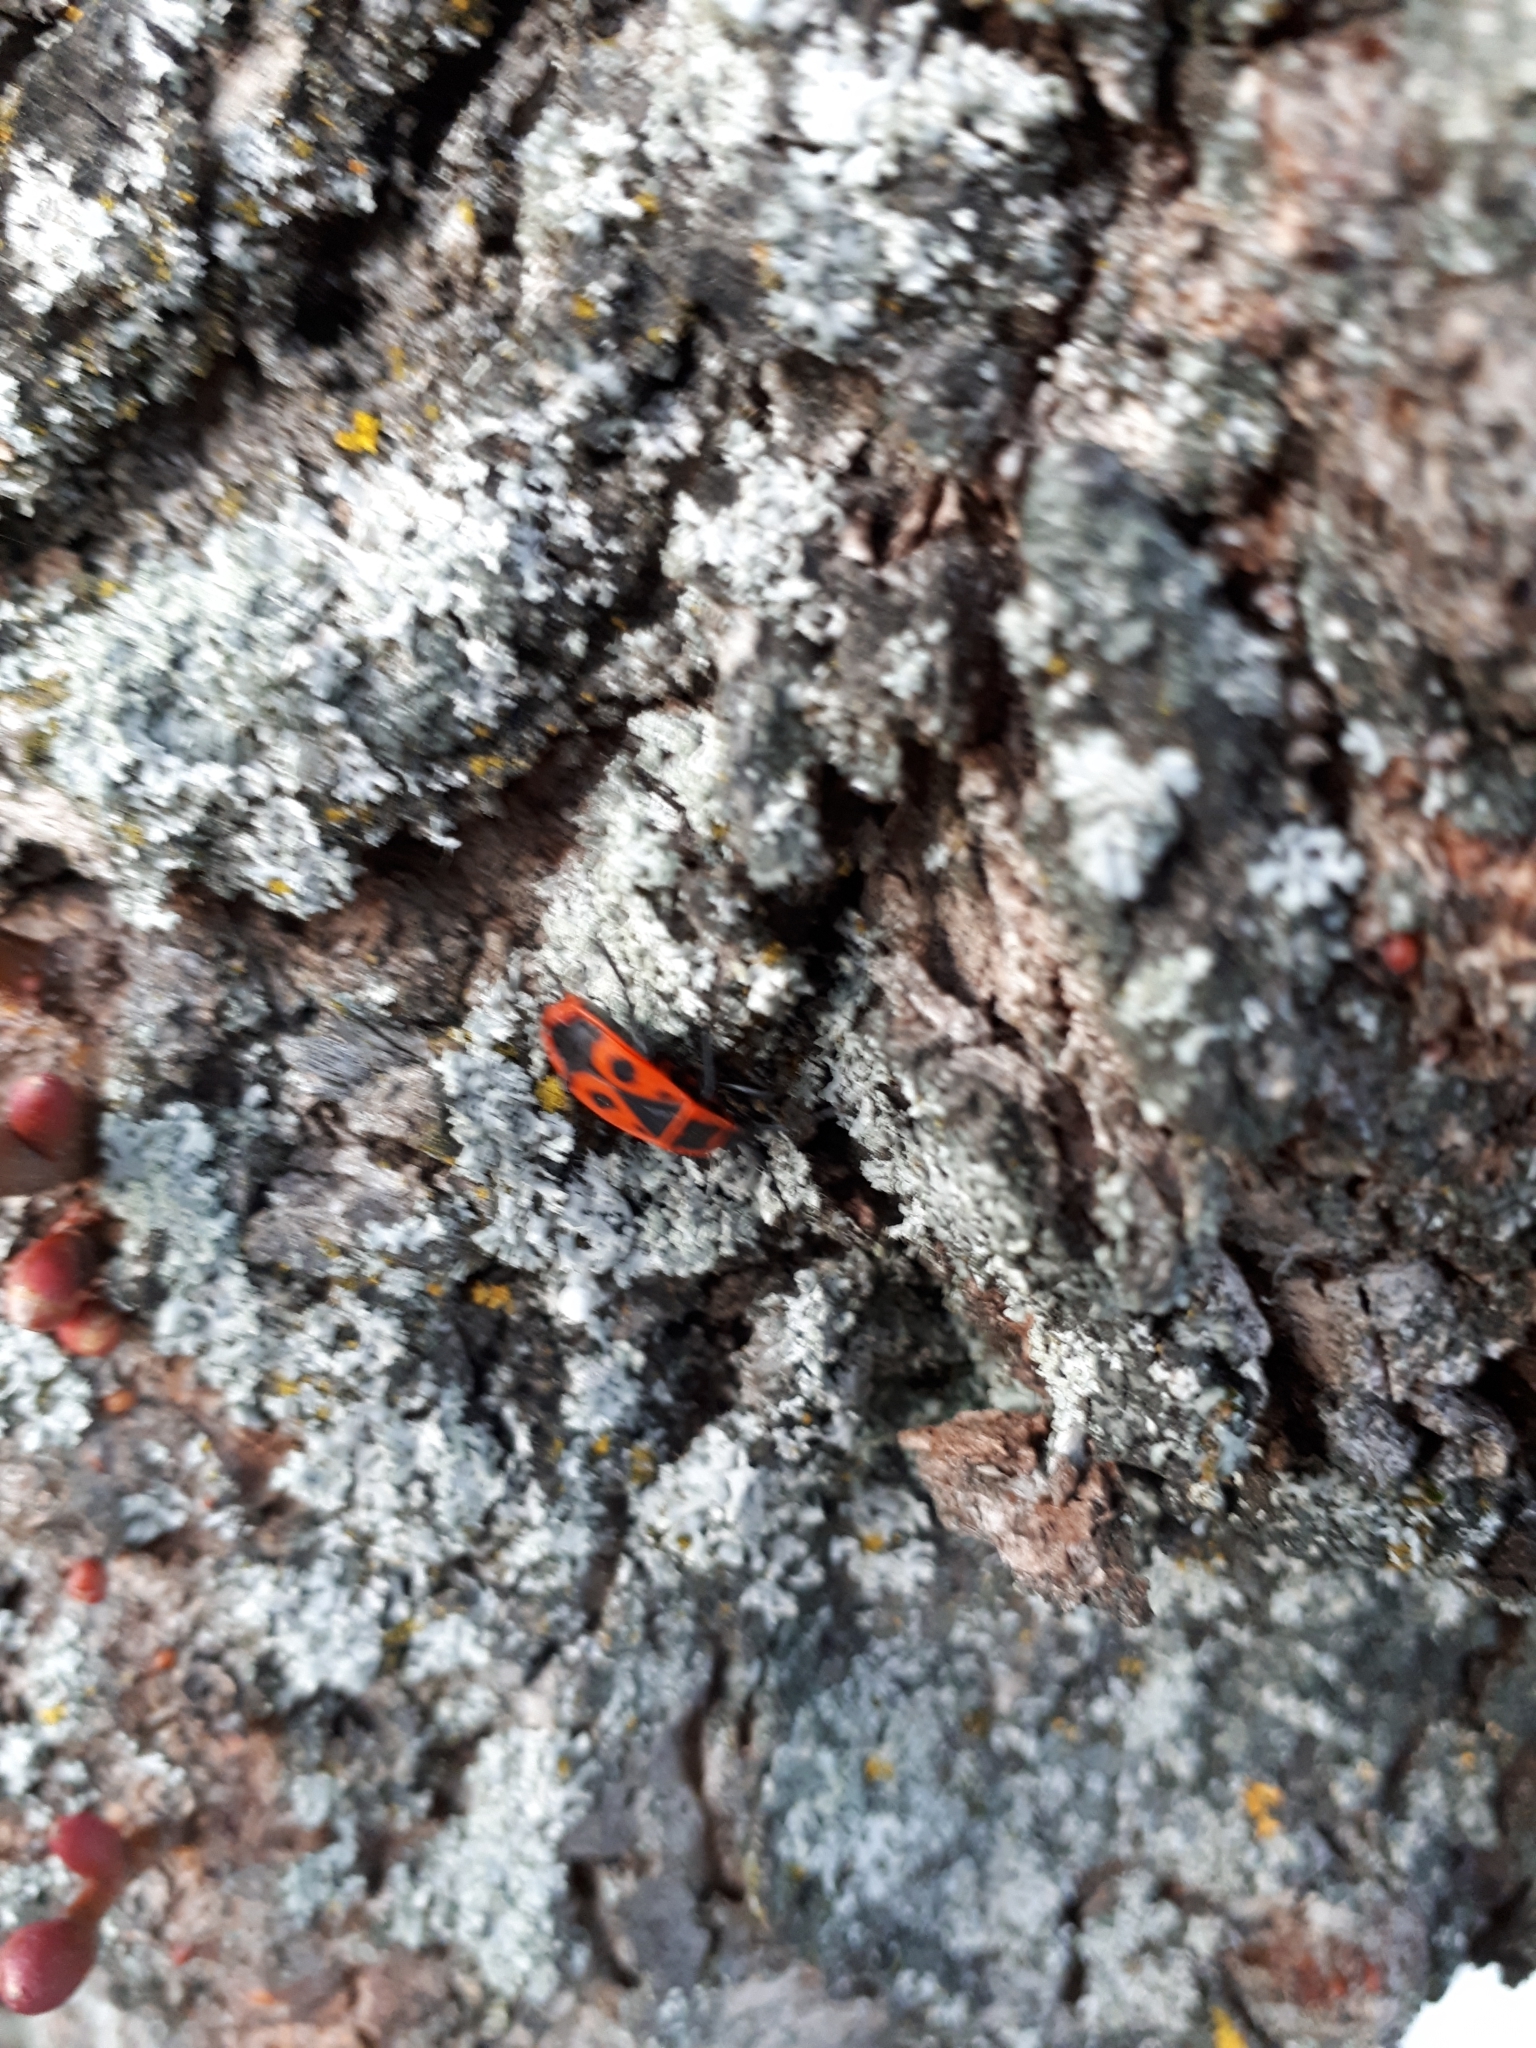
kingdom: Animalia
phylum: Arthropoda
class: Insecta
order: Hemiptera
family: Pyrrhocoridae
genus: Pyrrhocoris
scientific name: Pyrrhocoris apterus
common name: Firebug
